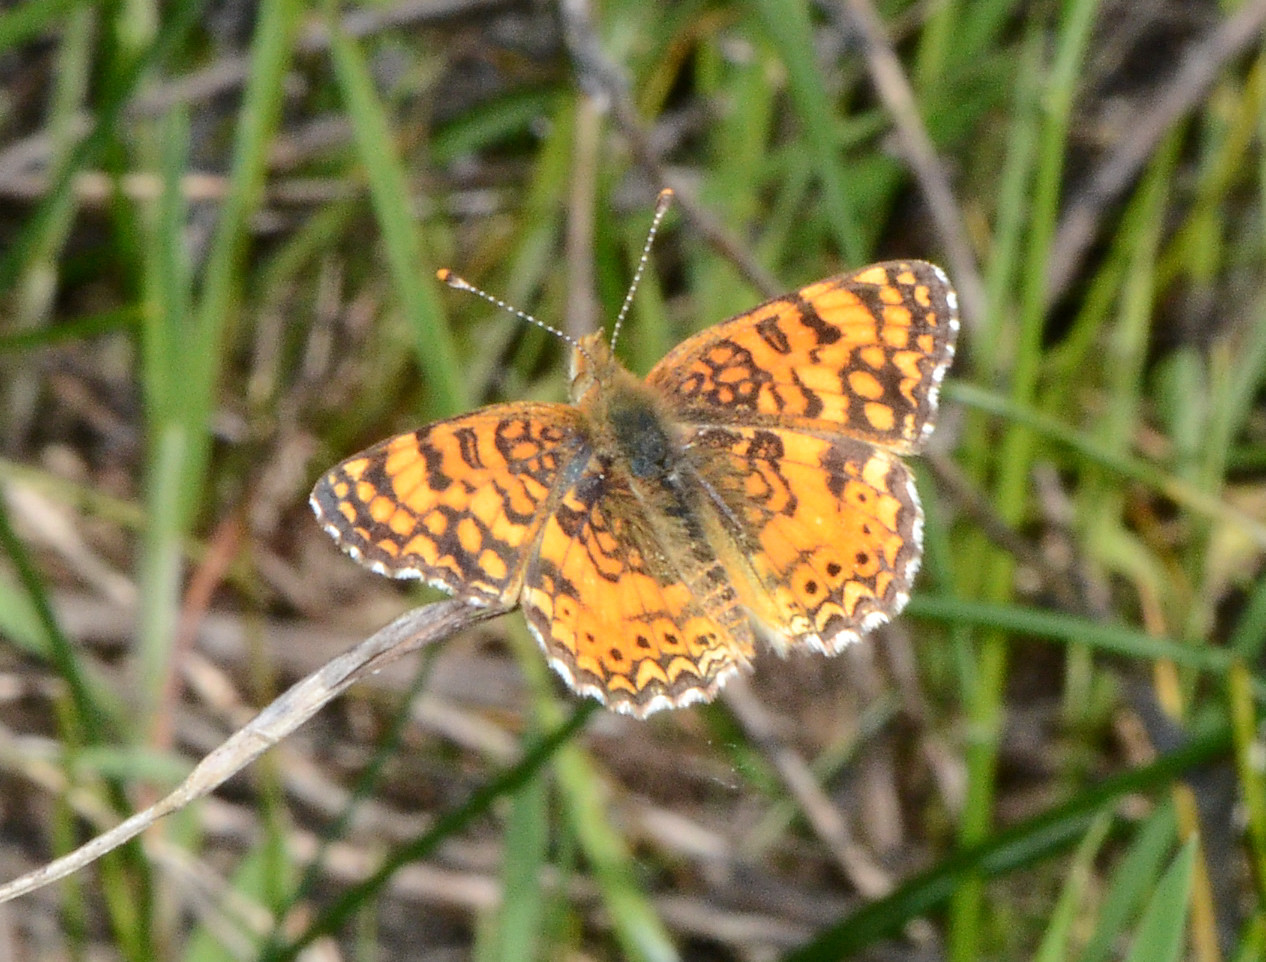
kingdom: Animalia
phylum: Arthropoda
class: Insecta
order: Lepidoptera
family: Nymphalidae
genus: Eresia
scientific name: Eresia aveyrona
